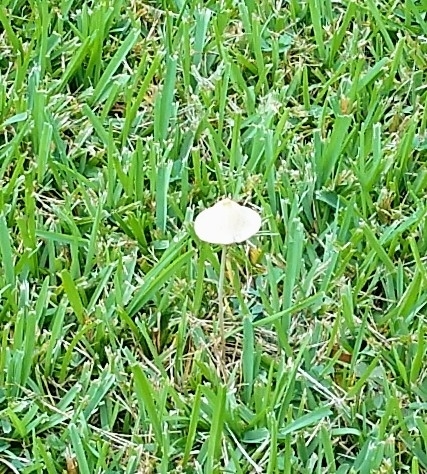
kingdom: Fungi
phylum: Basidiomycota
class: Agaricomycetes
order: Agaricales
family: Bolbitiaceae
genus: Conocybe
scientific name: Conocybe apala
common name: Milky conecap
